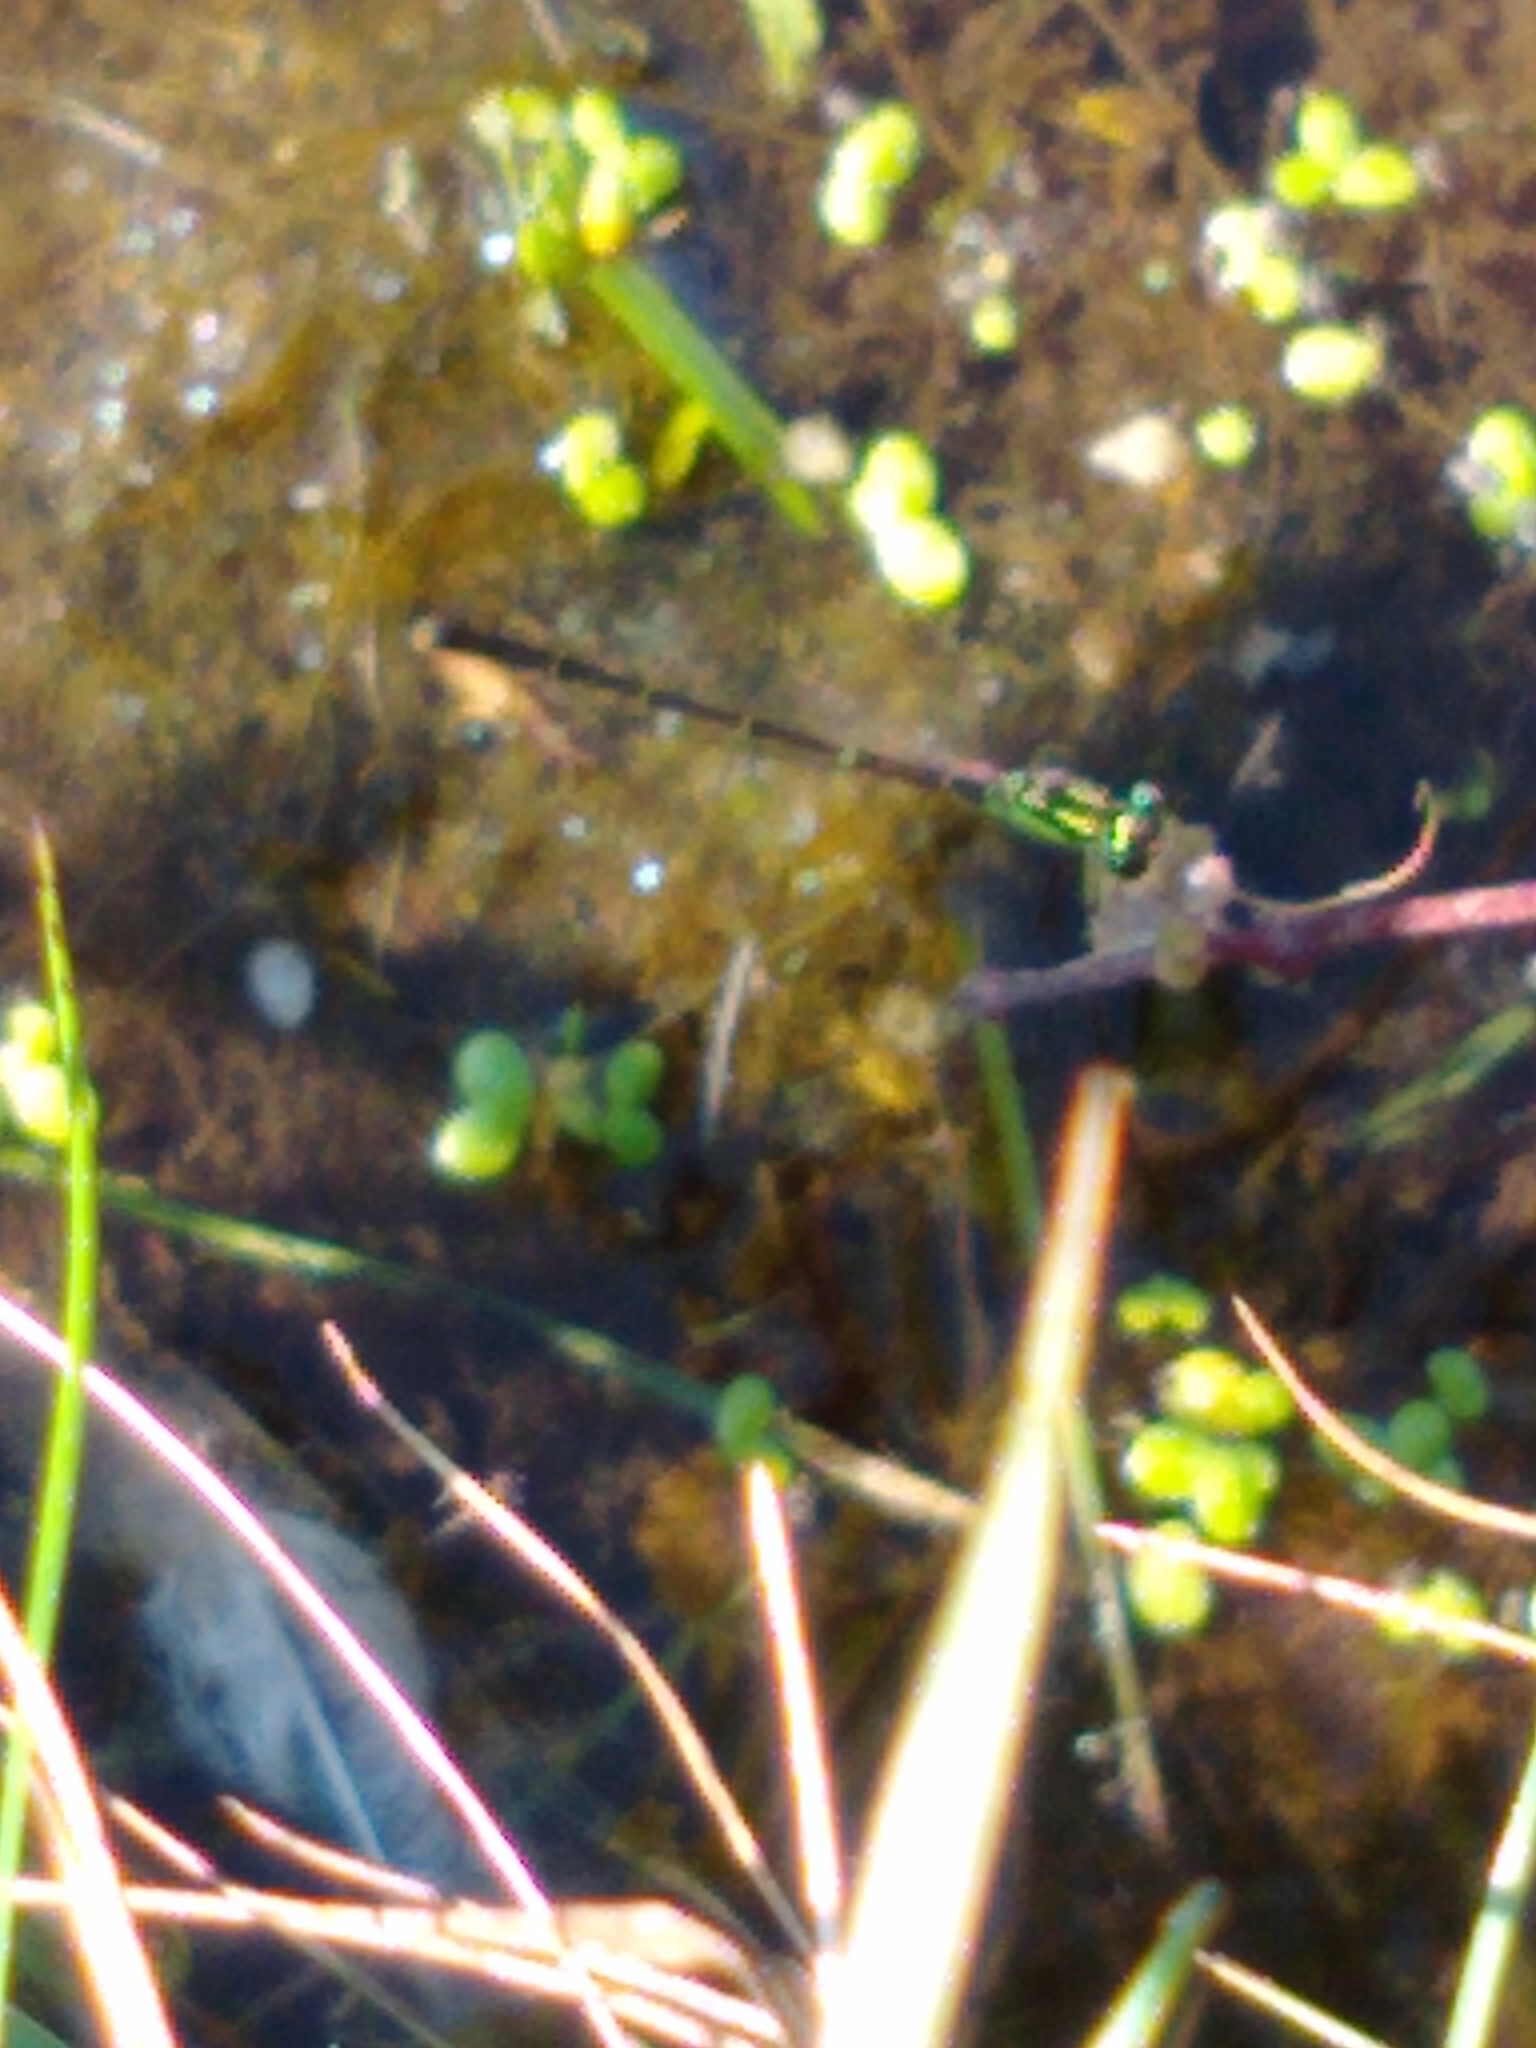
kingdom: Animalia
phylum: Arthropoda
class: Insecta
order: Odonata
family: Coenagrionidae
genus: Ischnura
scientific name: Ischnura posita
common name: Fragile forktail
